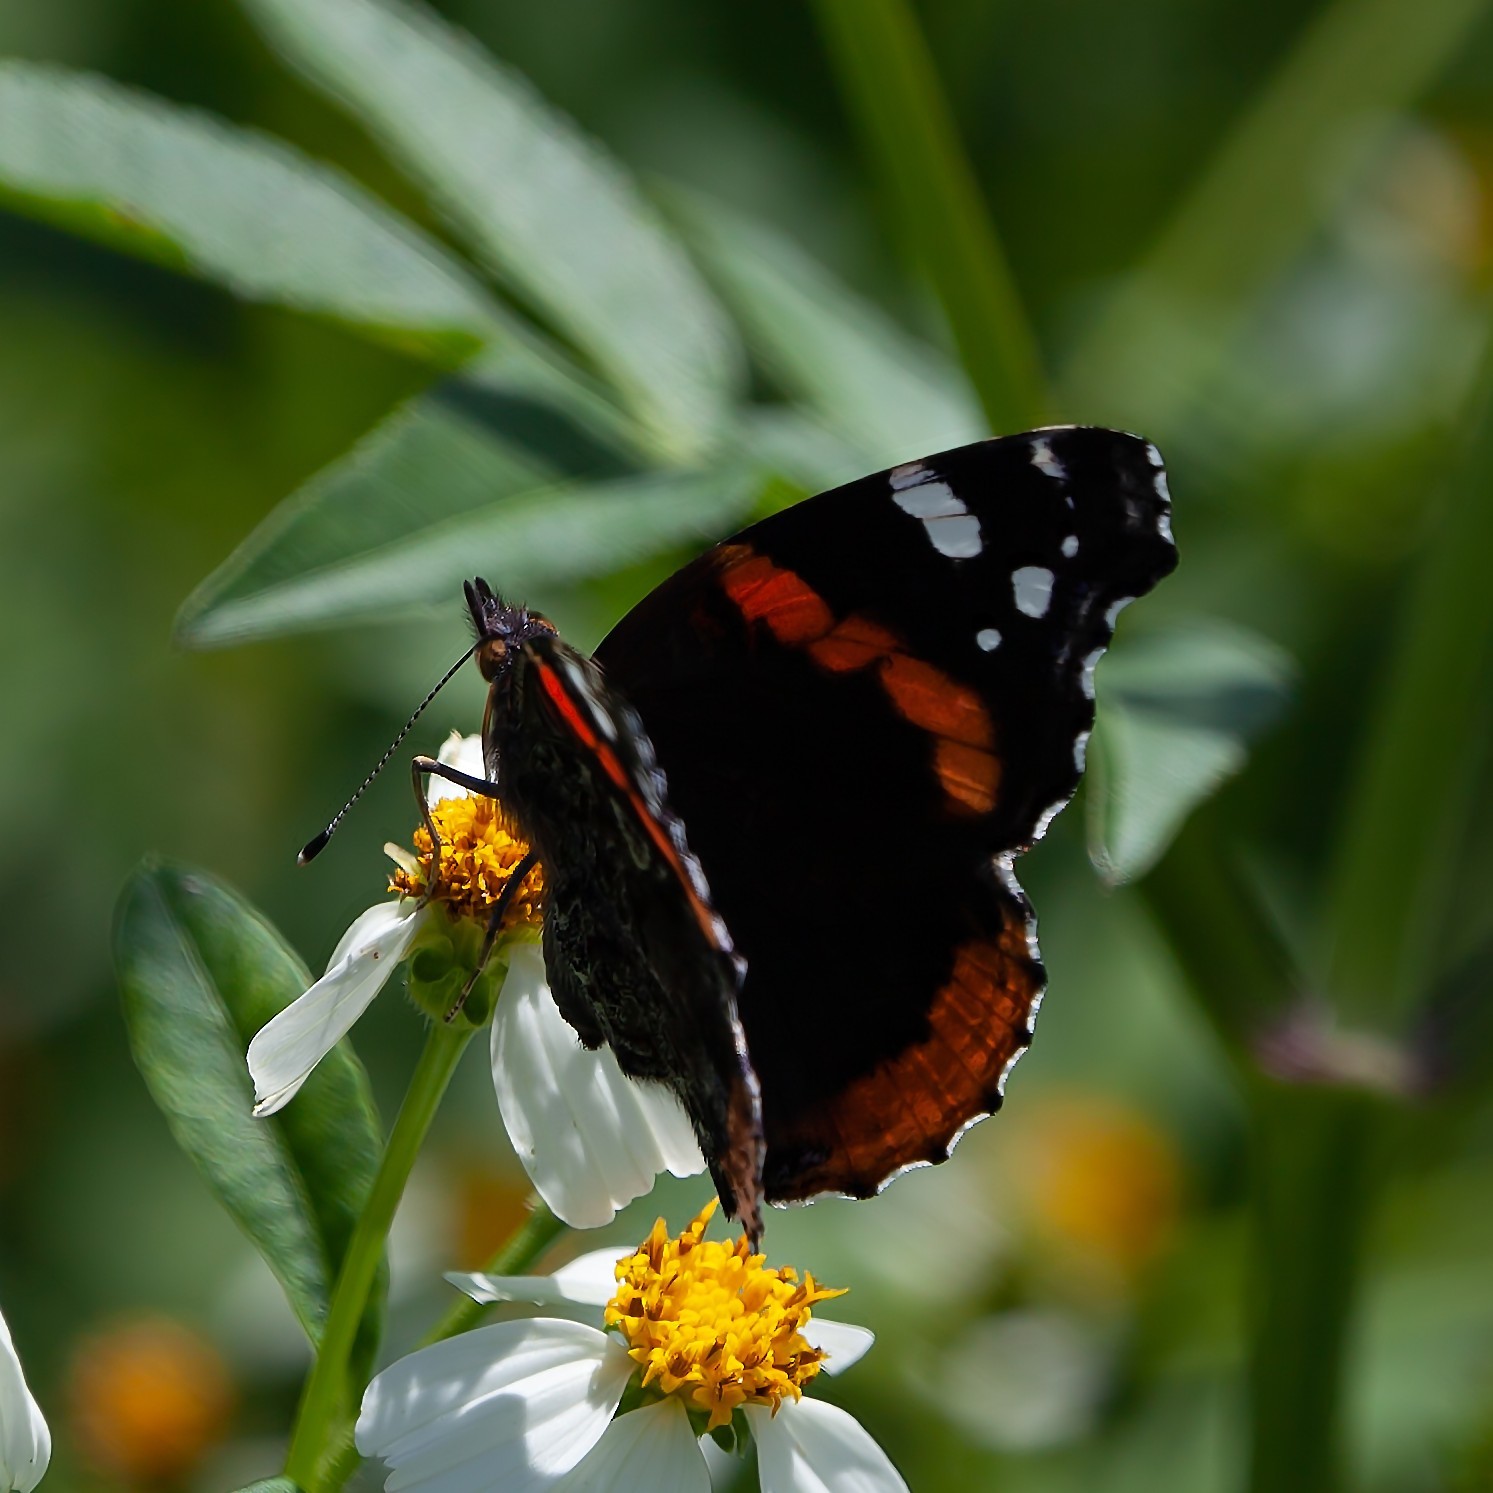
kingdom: Animalia
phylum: Arthropoda
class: Insecta
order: Lepidoptera
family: Nymphalidae
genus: Vanessa
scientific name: Vanessa atalanta
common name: Red admiral
